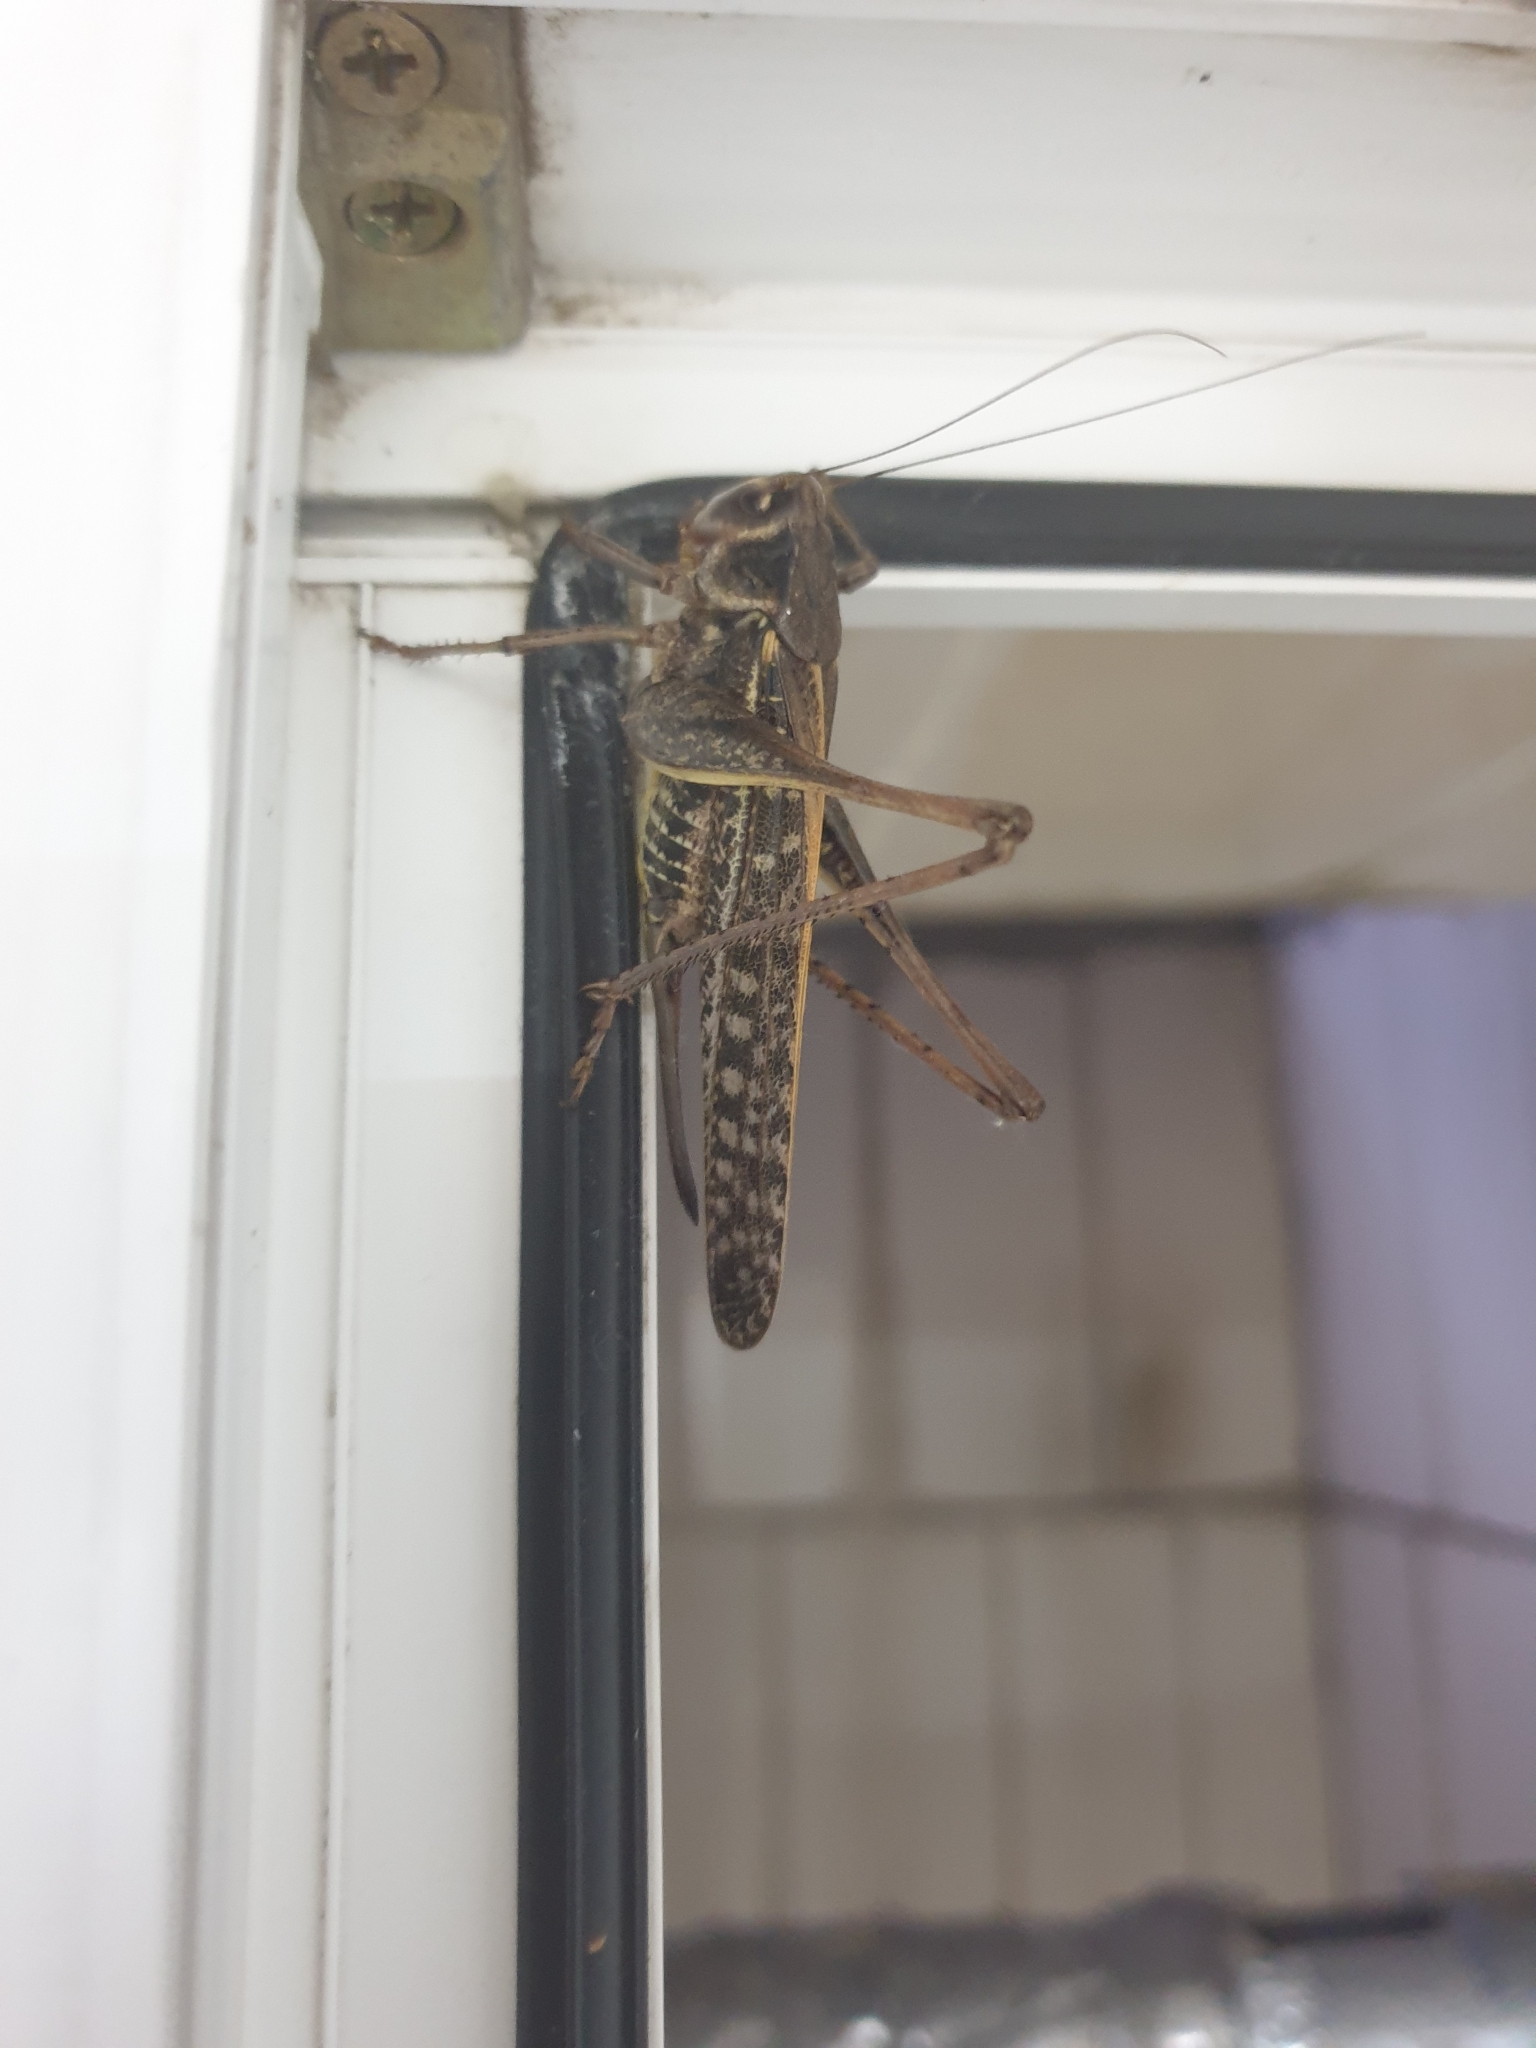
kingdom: Animalia
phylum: Arthropoda
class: Insecta
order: Orthoptera
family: Tettigoniidae
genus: Decticus
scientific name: Decticus verrucivorus
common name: Wart-biter
